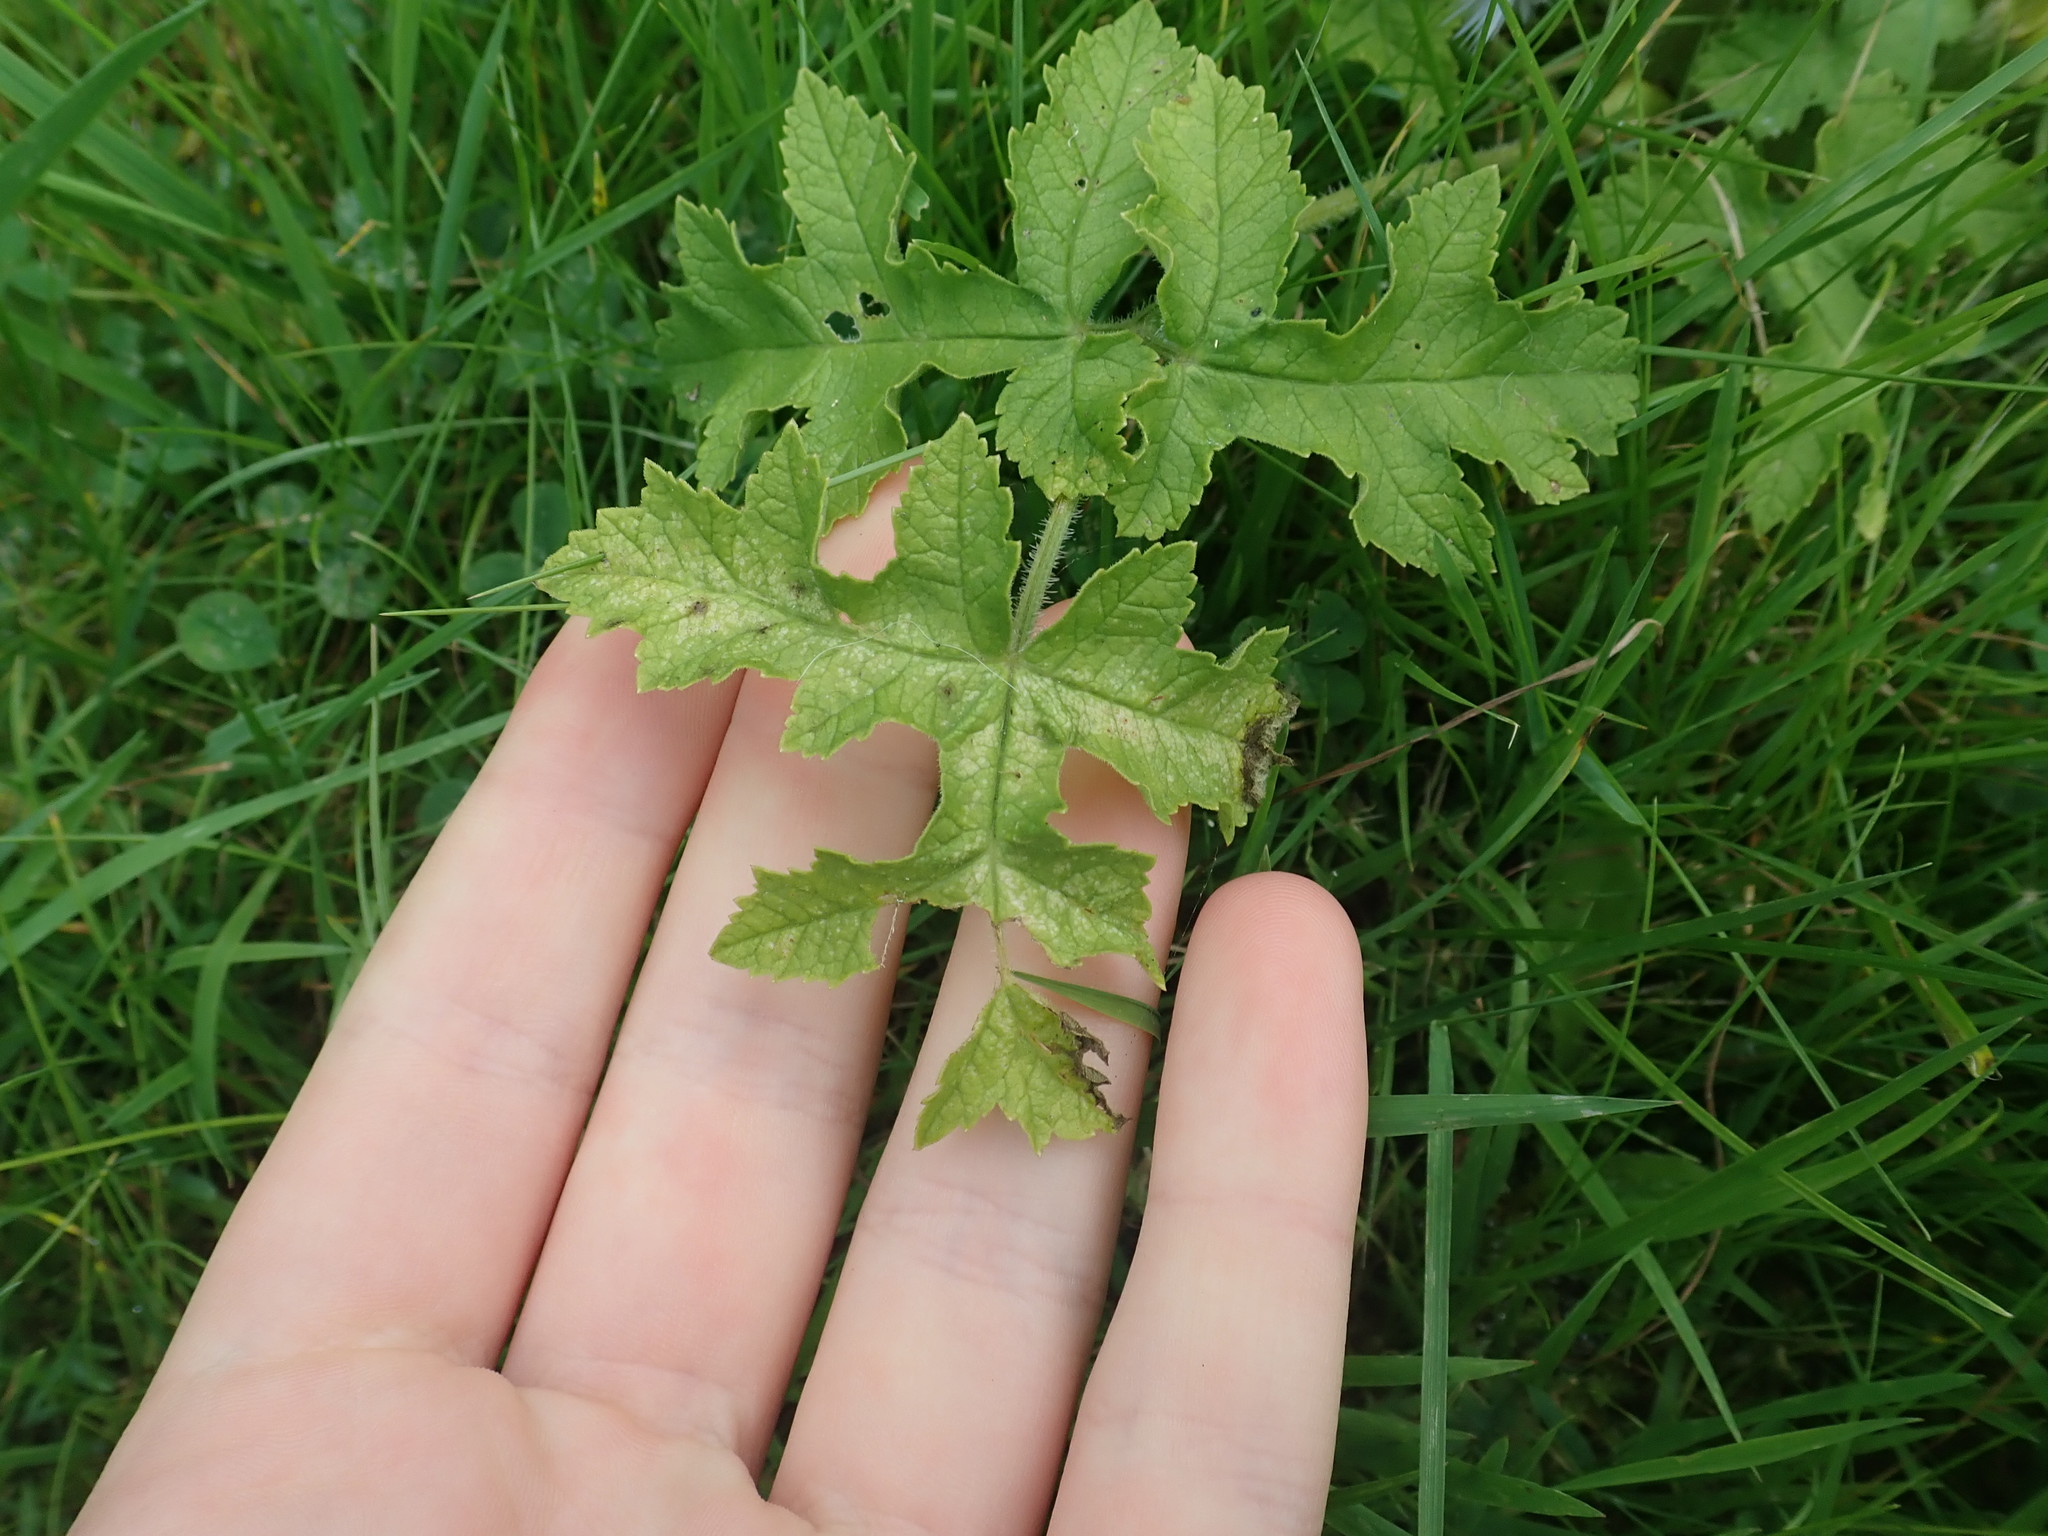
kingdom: Plantae
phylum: Tracheophyta
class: Magnoliopsida
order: Apiales
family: Apiaceae
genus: Heracleum
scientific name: Heracleum sphondylium
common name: Hogweed
